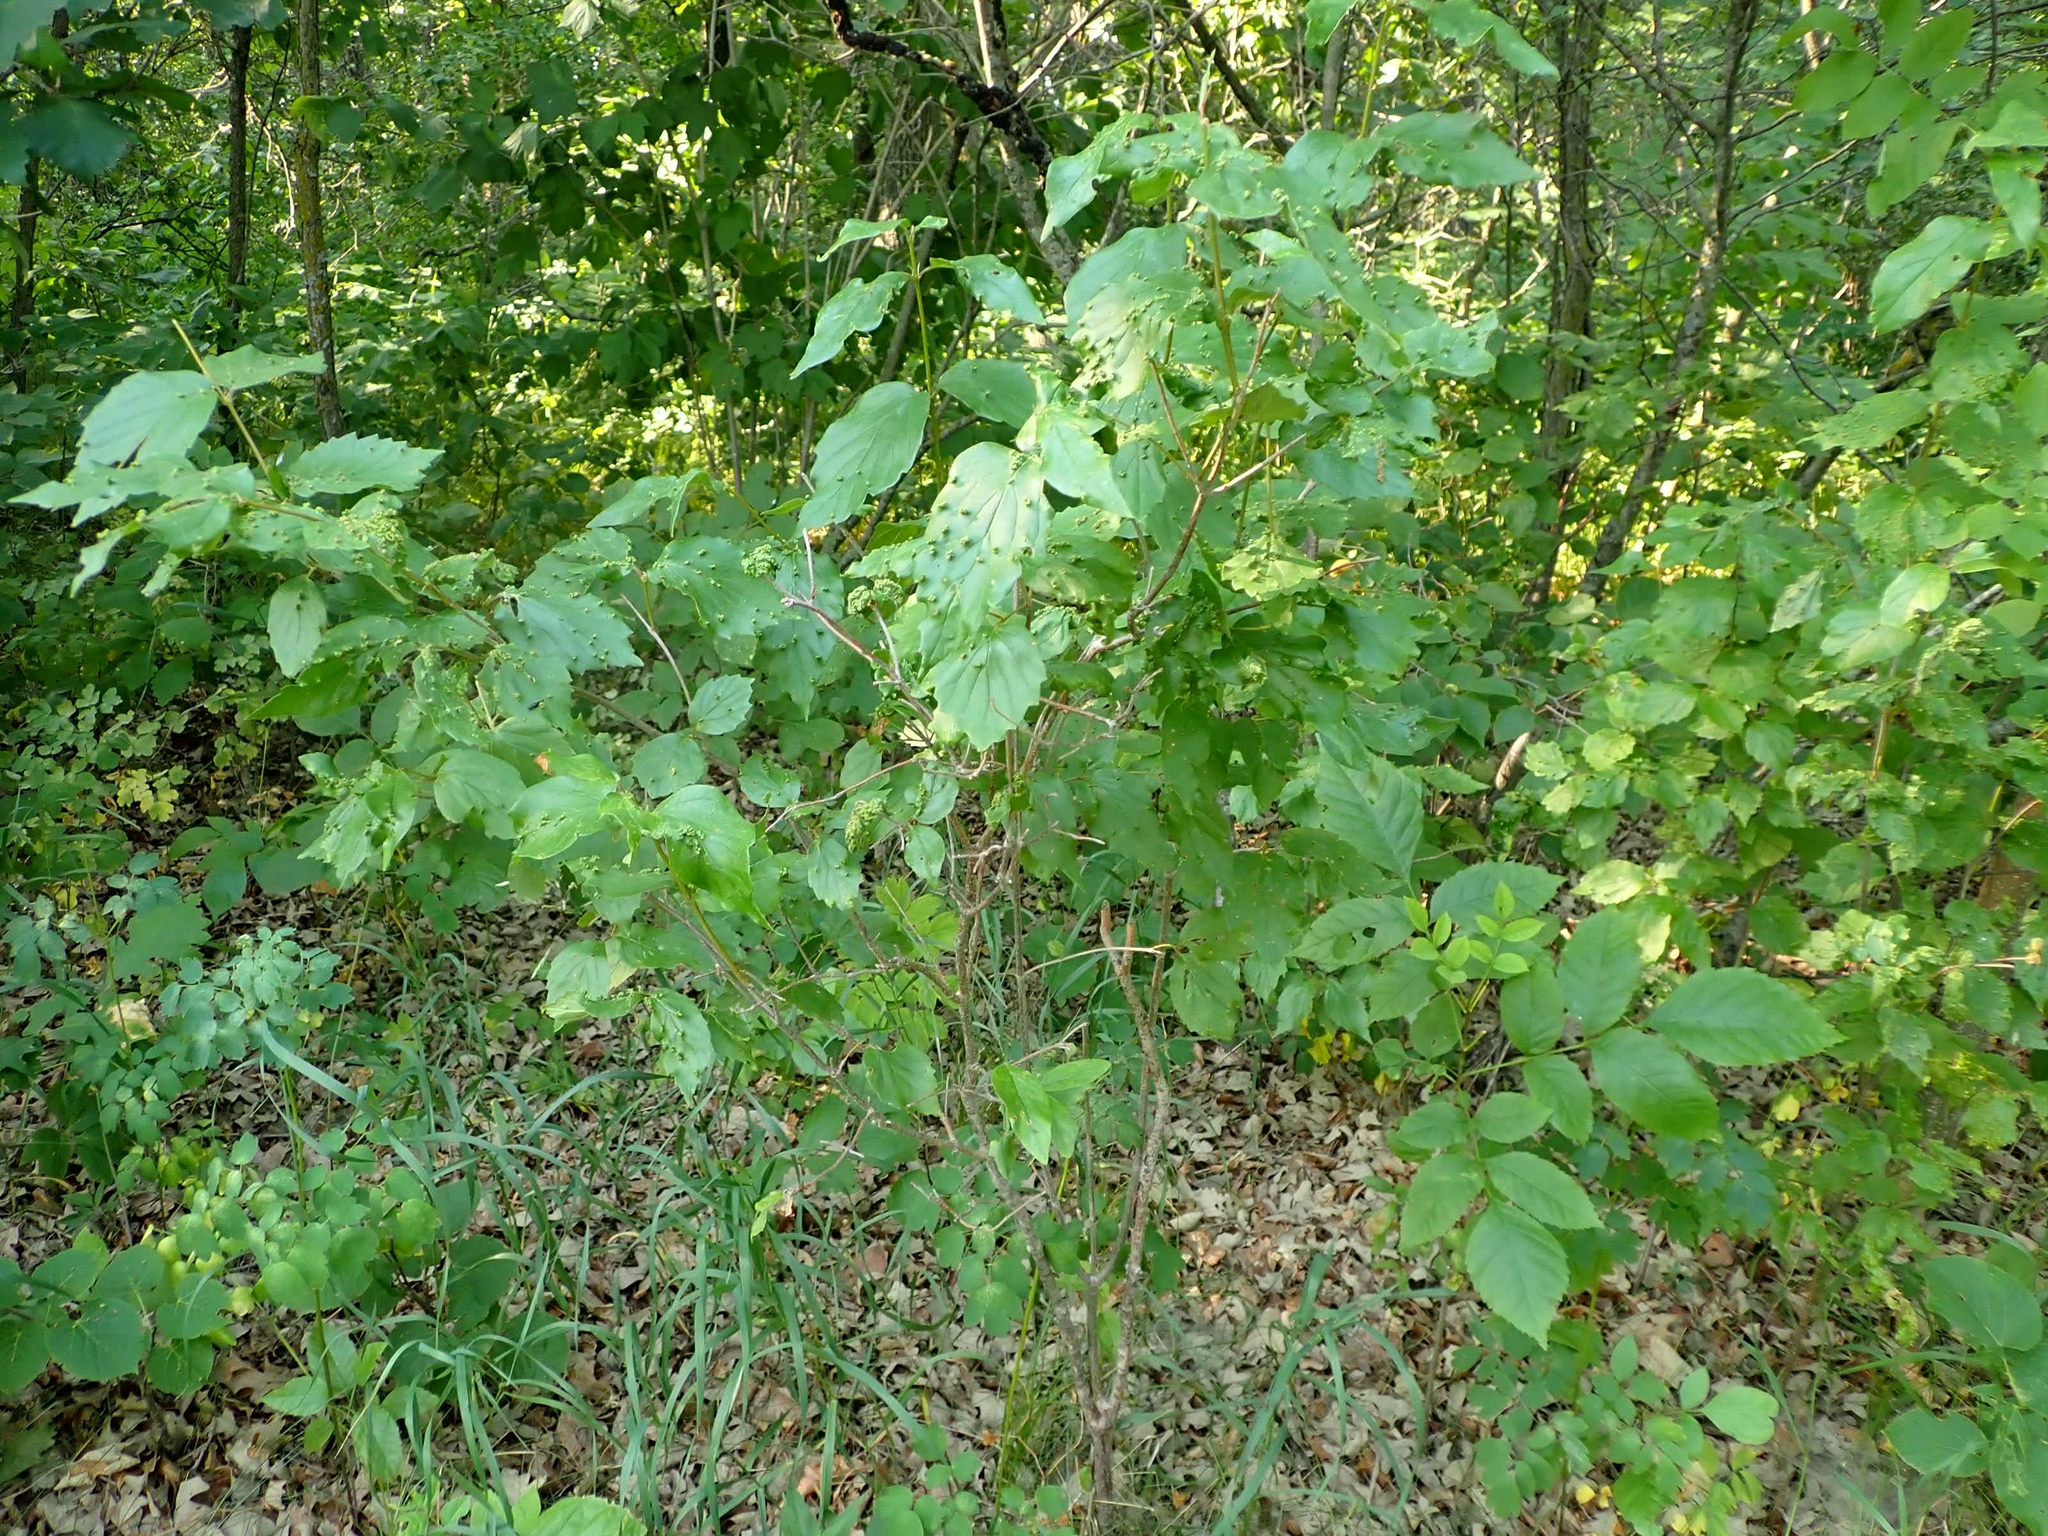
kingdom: Plantae
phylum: Tracheophyta
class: Magnoliopsida
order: Dipsacales
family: Viburnaceae
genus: Viburnum
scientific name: Viburnum rafinesqueanum
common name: Downy arrow-wood
